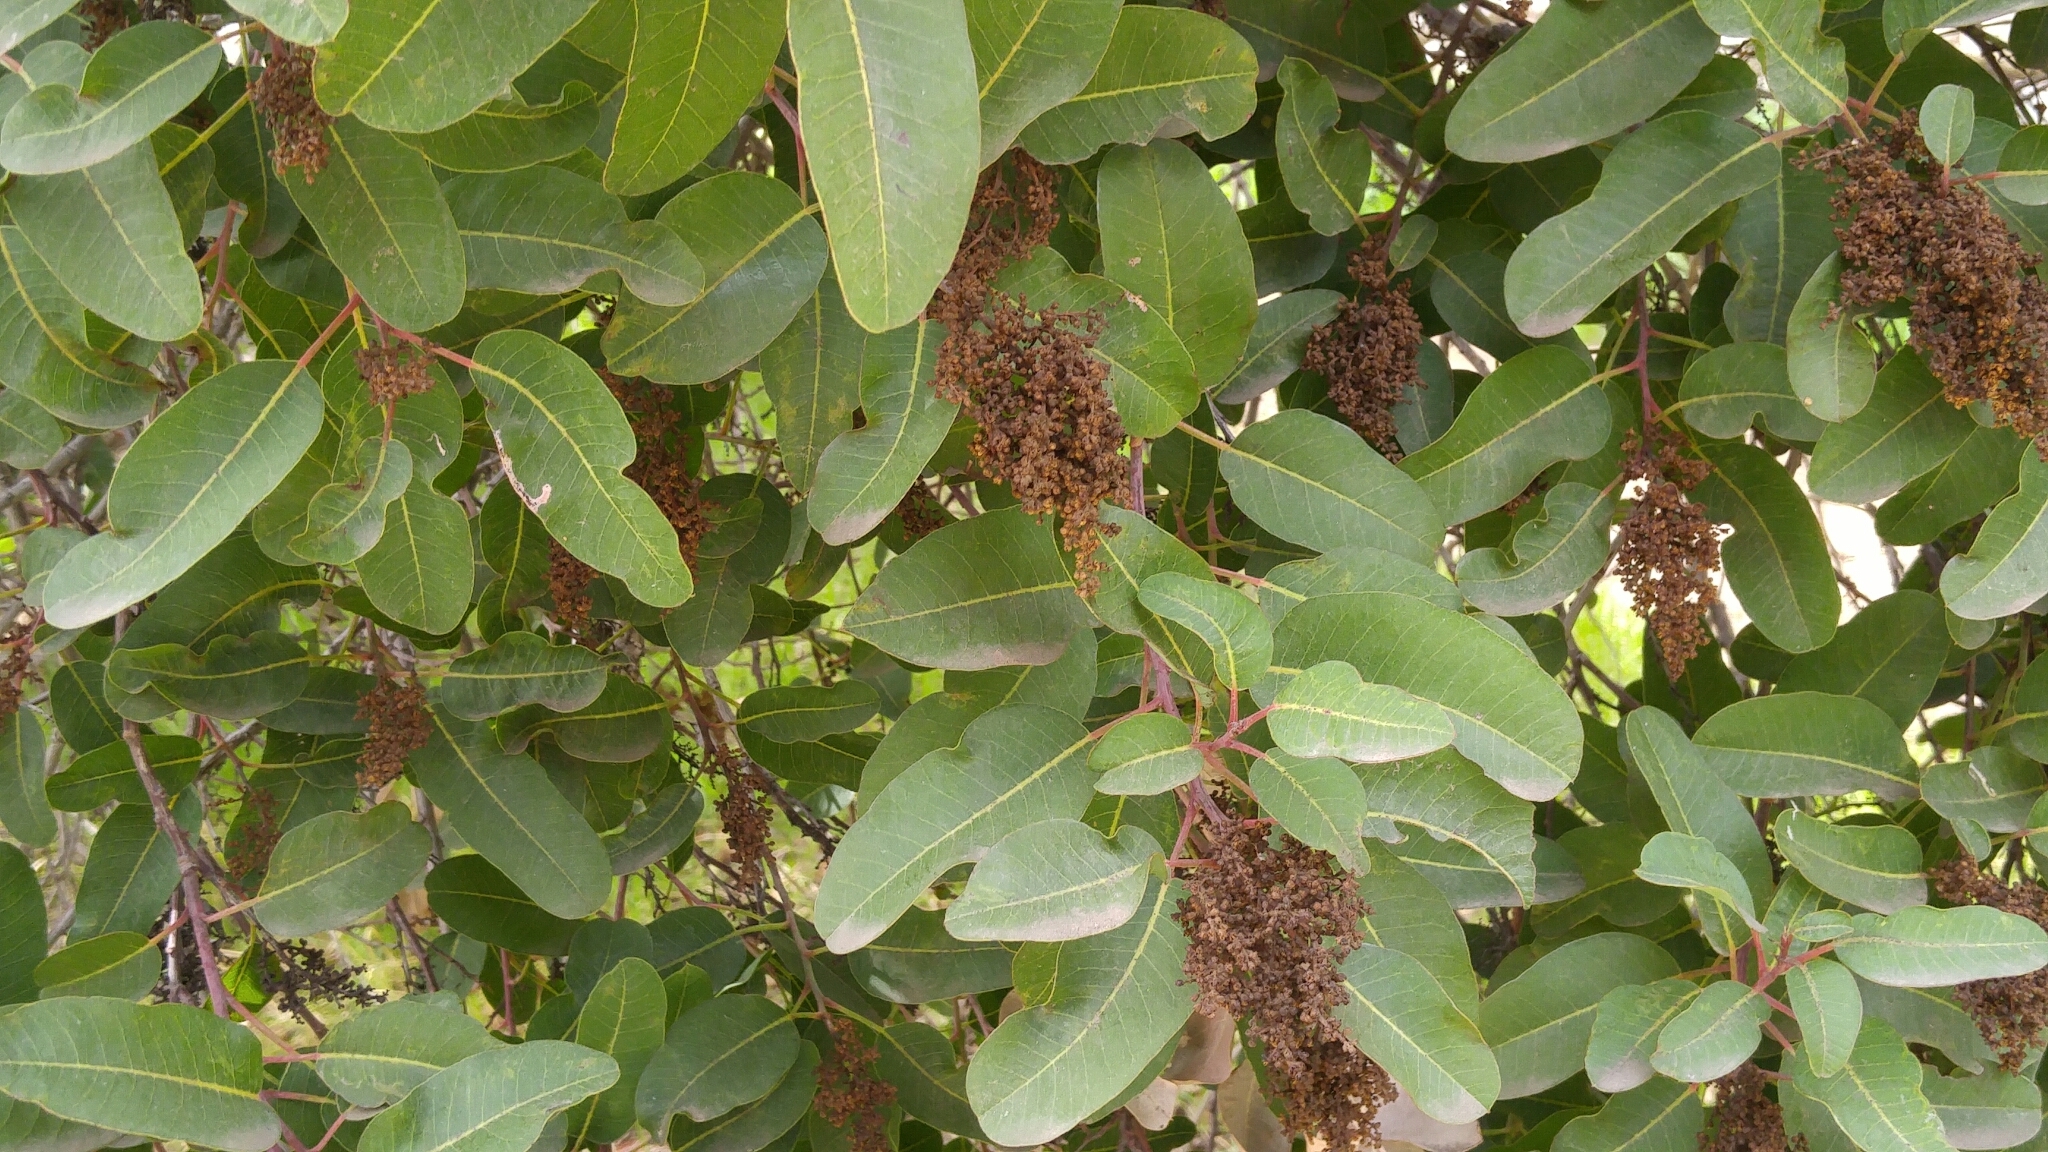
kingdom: Plantae
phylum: Tracheophyta
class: Magnoliopsida
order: Sapindales
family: Anacardiaceae
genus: Malosma
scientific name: Malosma laurina
